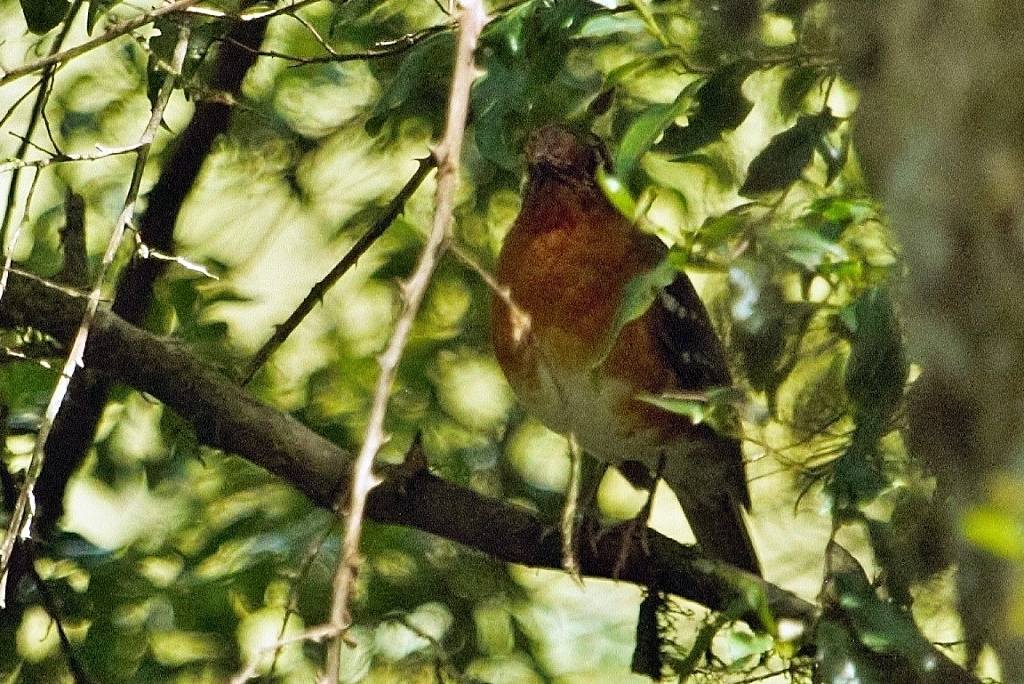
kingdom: Animalia
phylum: Chordata
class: Aves
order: Passeriformes
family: Turdidae
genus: Geokichla
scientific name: Geokichla gurneyi
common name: Orange ground-thrush
